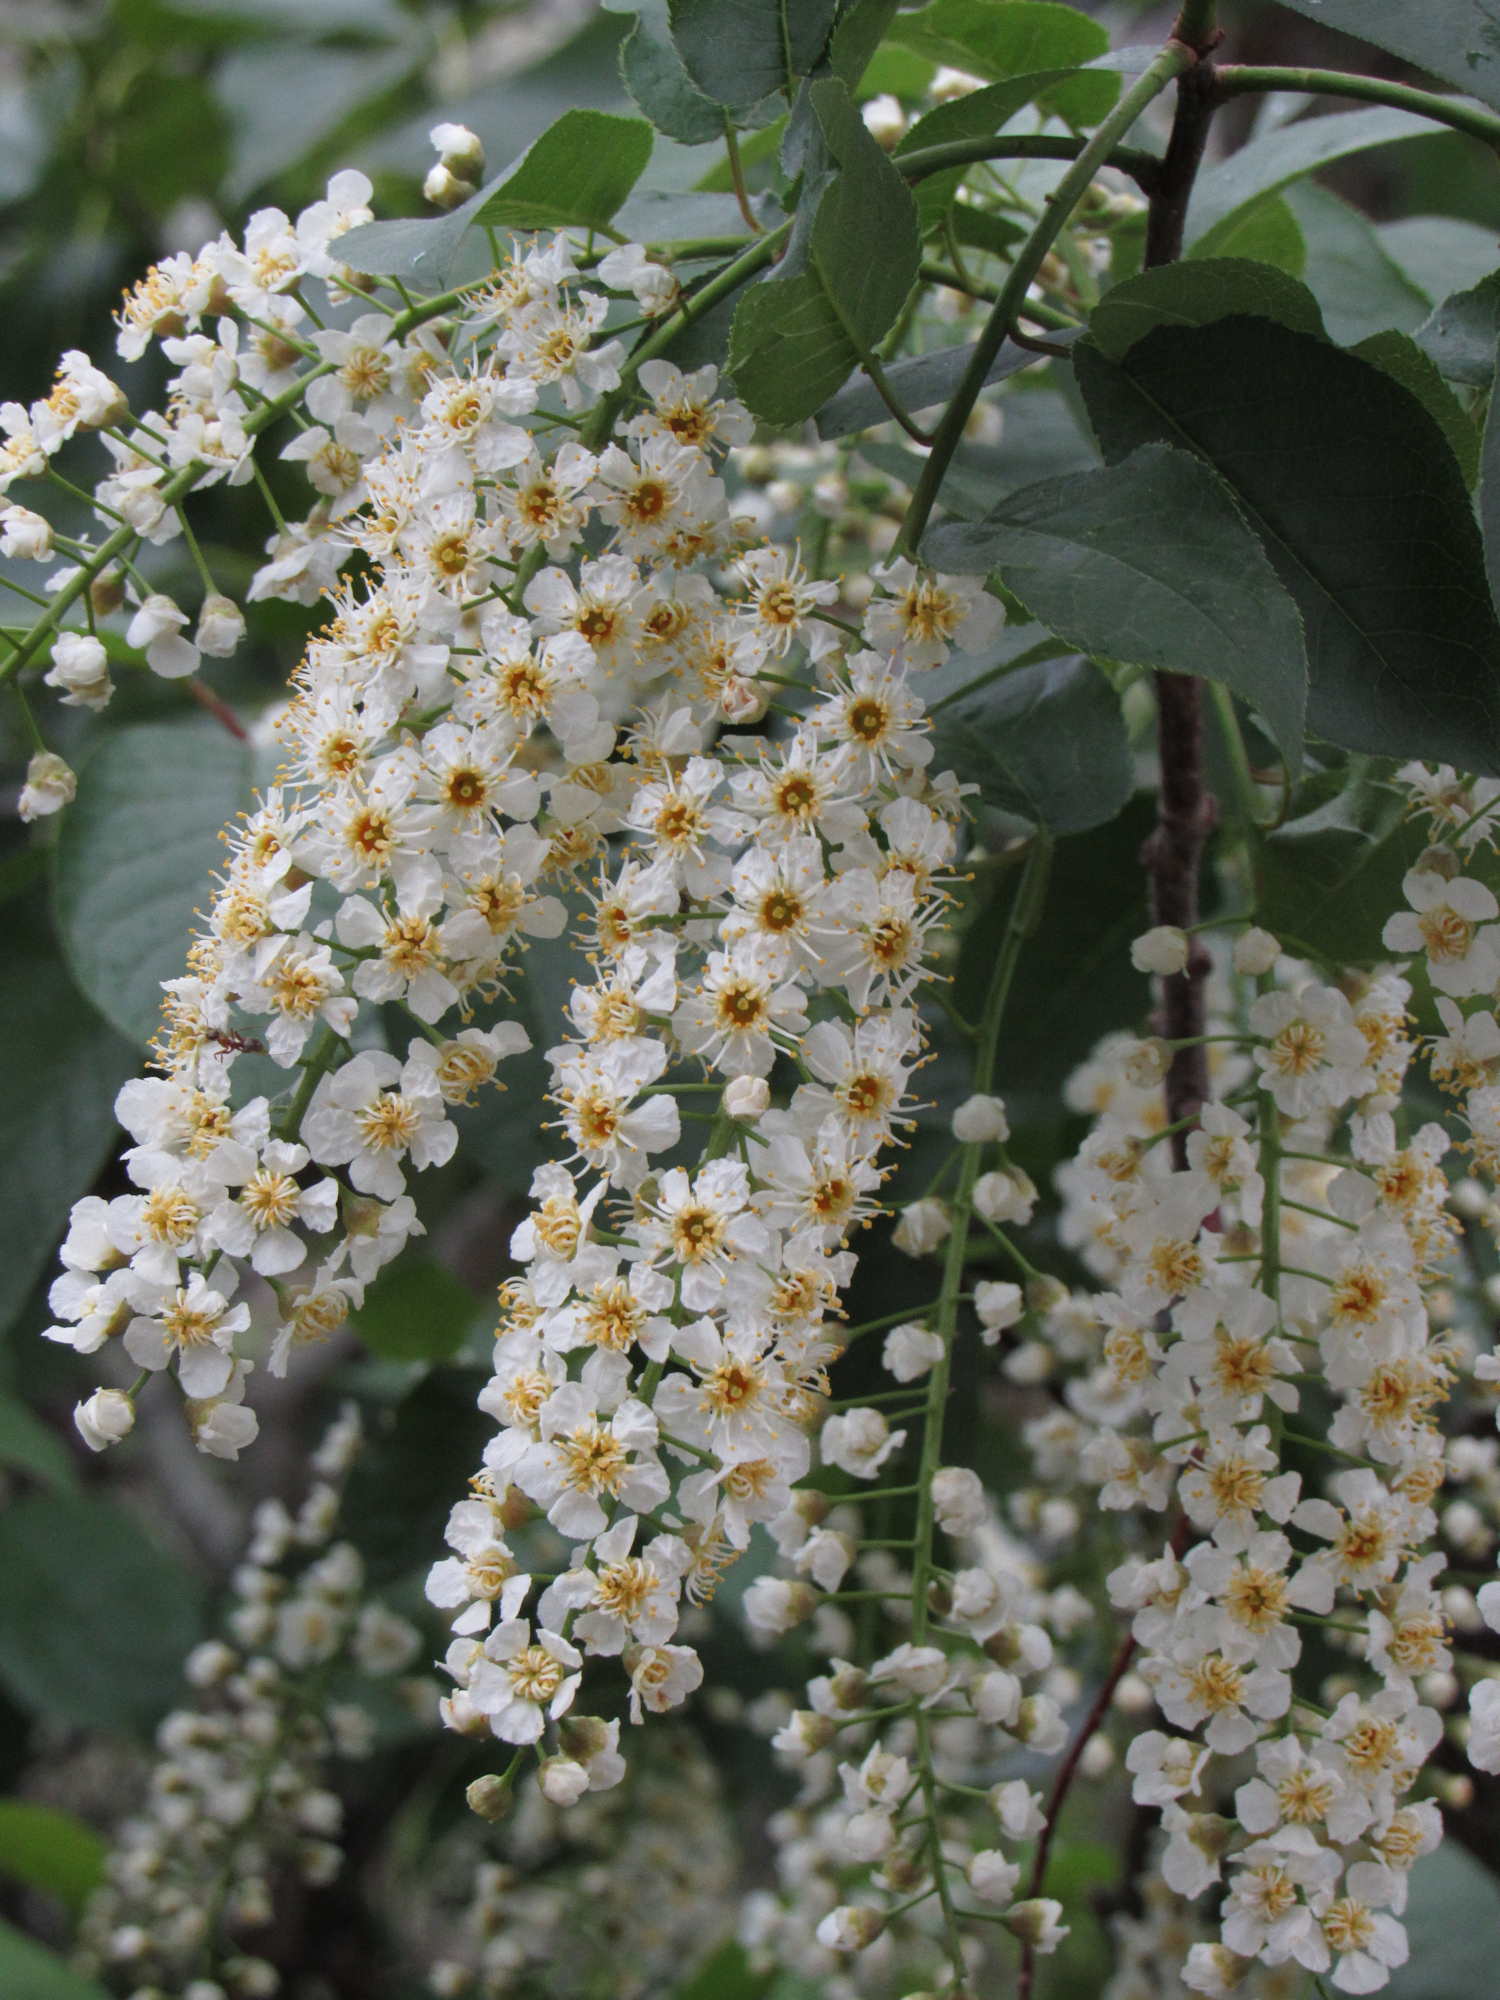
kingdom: Plantae
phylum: Tracheophyta
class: Magnoliopsida
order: Rosales
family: Rosaceae
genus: Prunus
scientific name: Prunus virginiana
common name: Chokecherry
